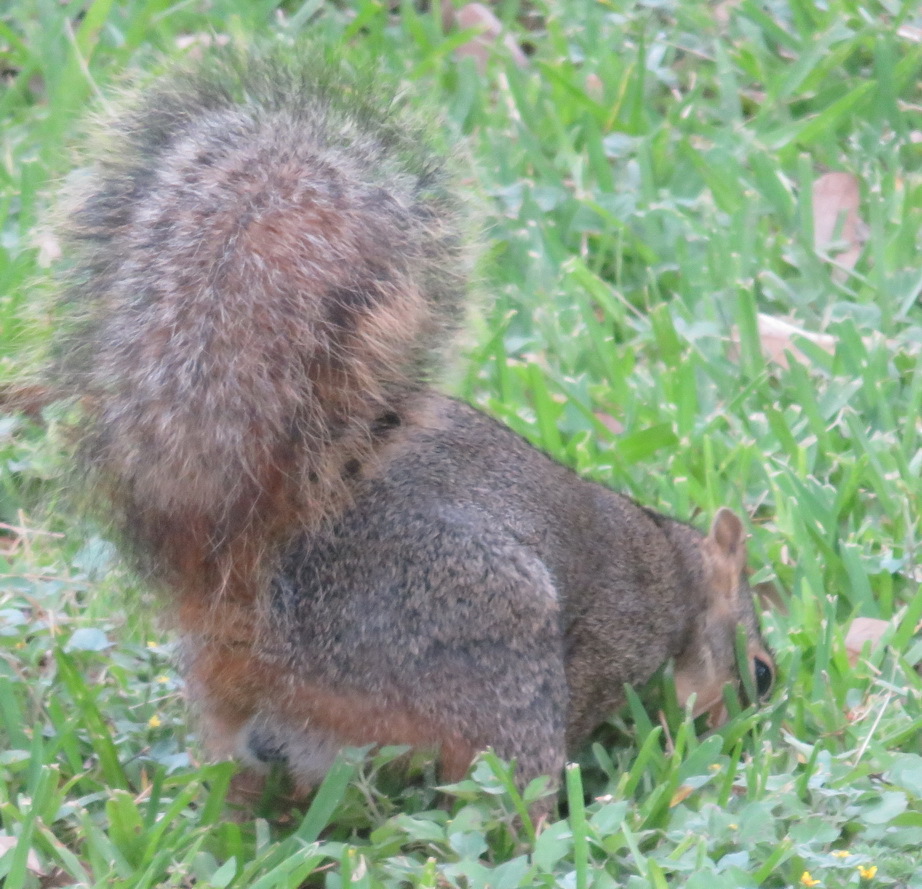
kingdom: Animalia
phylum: Chordata
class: Mammalia
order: Rodentia
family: Sciuridae
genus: Sciurus
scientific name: Sciurus niger
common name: Fox squirrel
